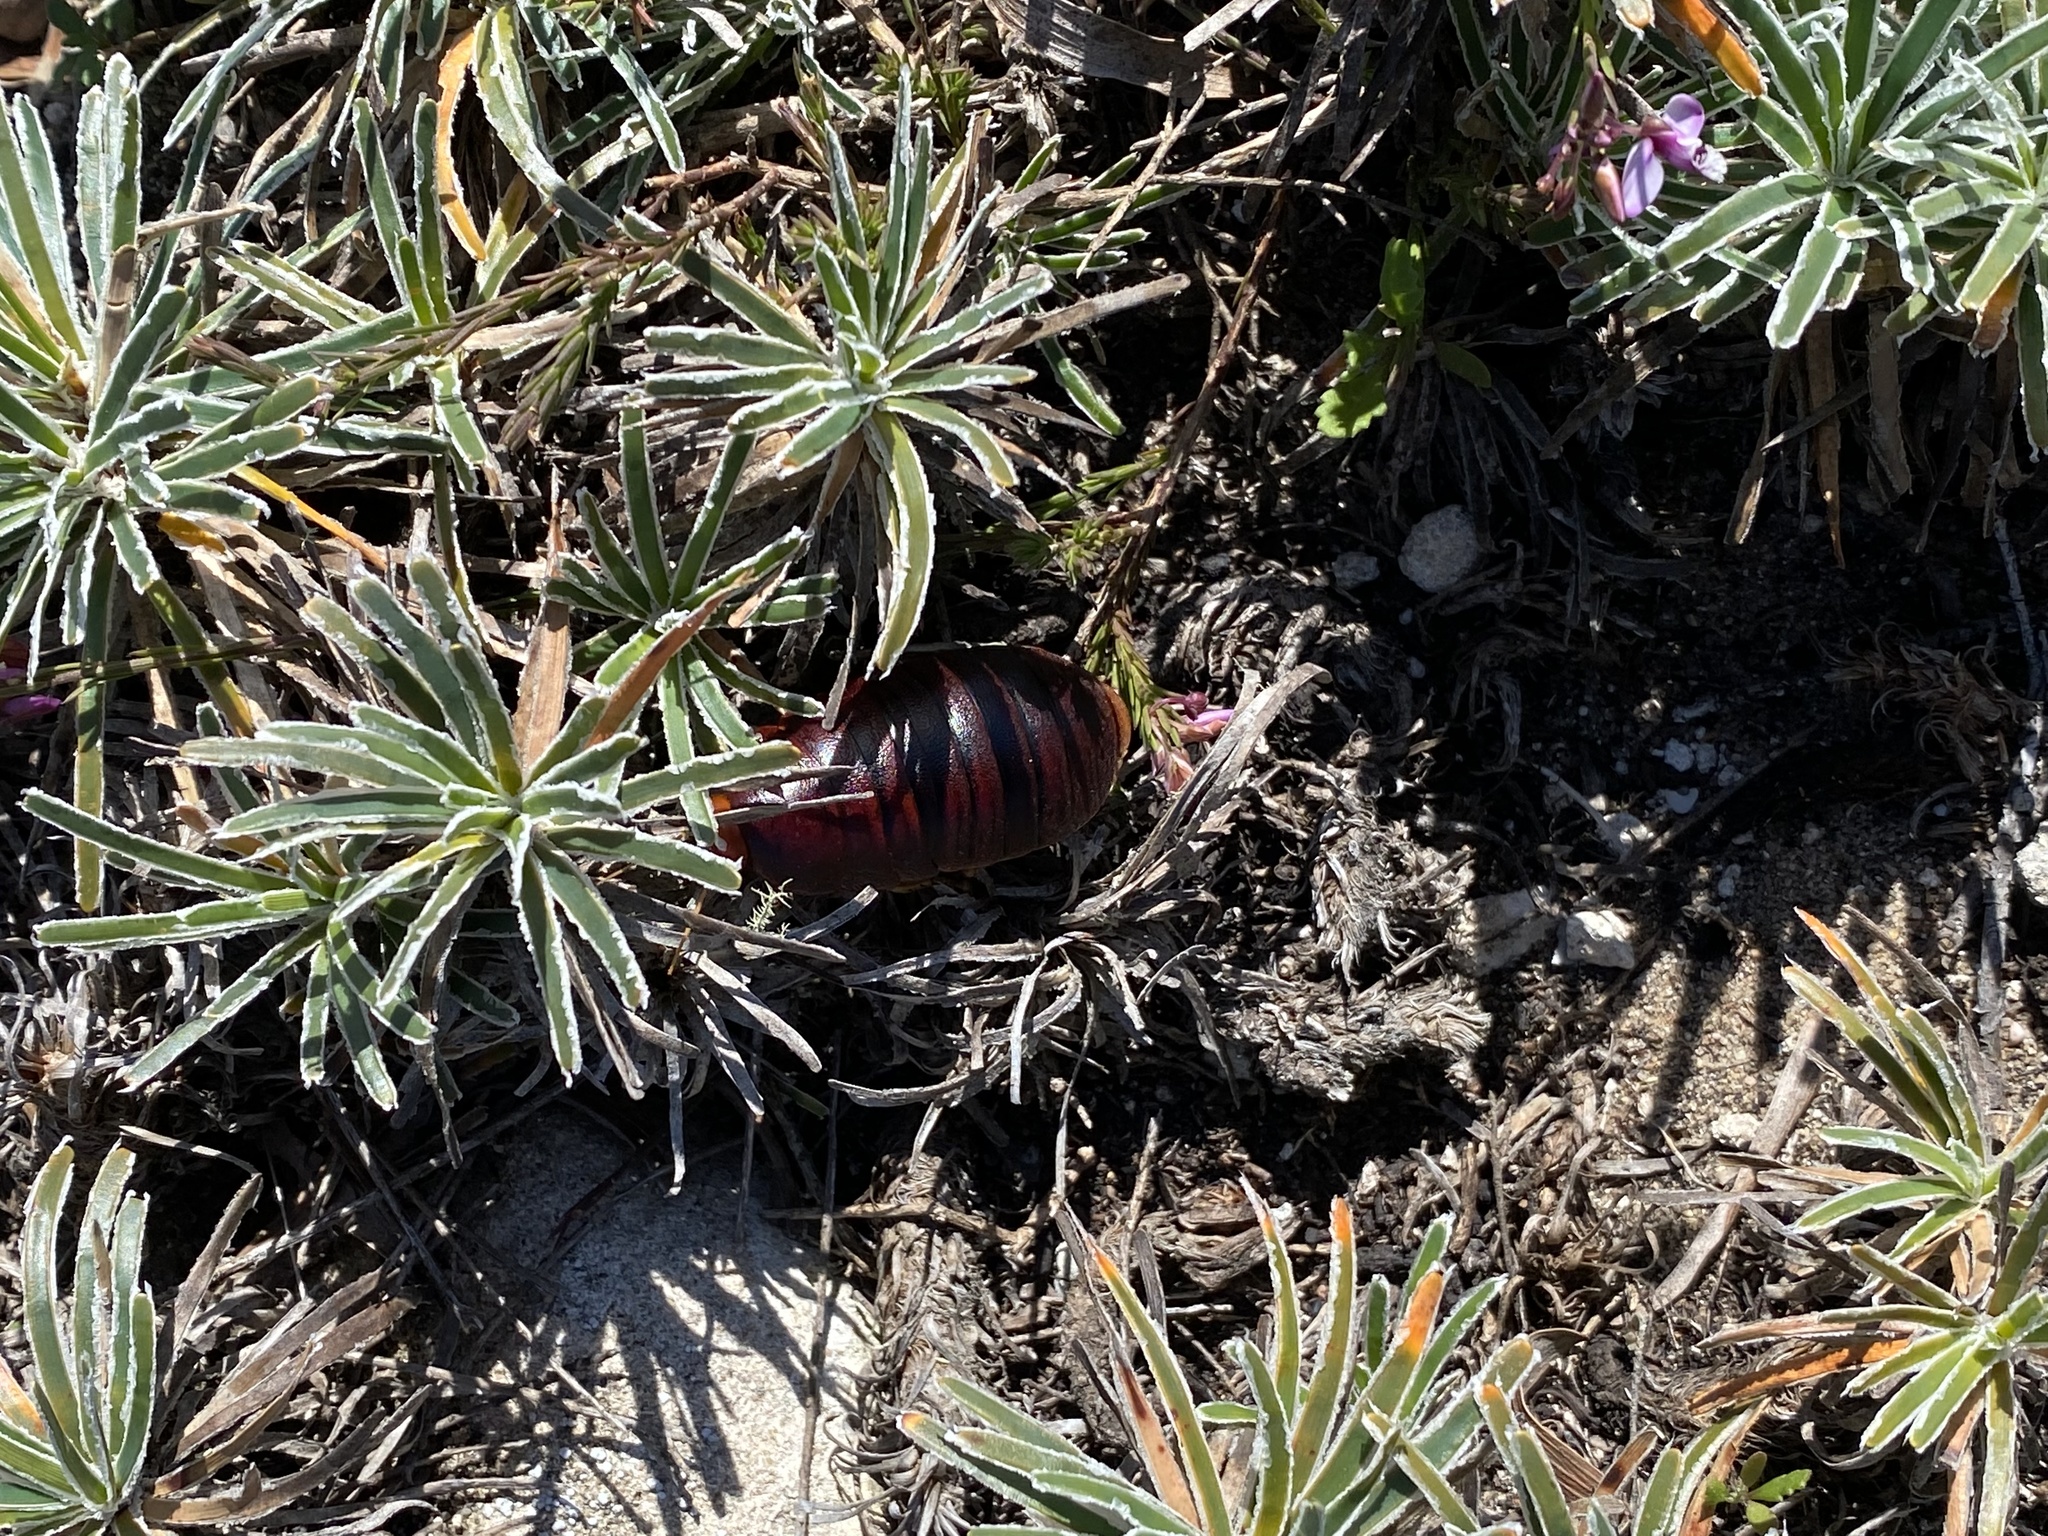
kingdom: Animalia
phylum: Arthropoda
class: Insecta
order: Blattodea
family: Blaberidae
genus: Aptera
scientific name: Aptera fusca
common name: Cape mountain cockroach
